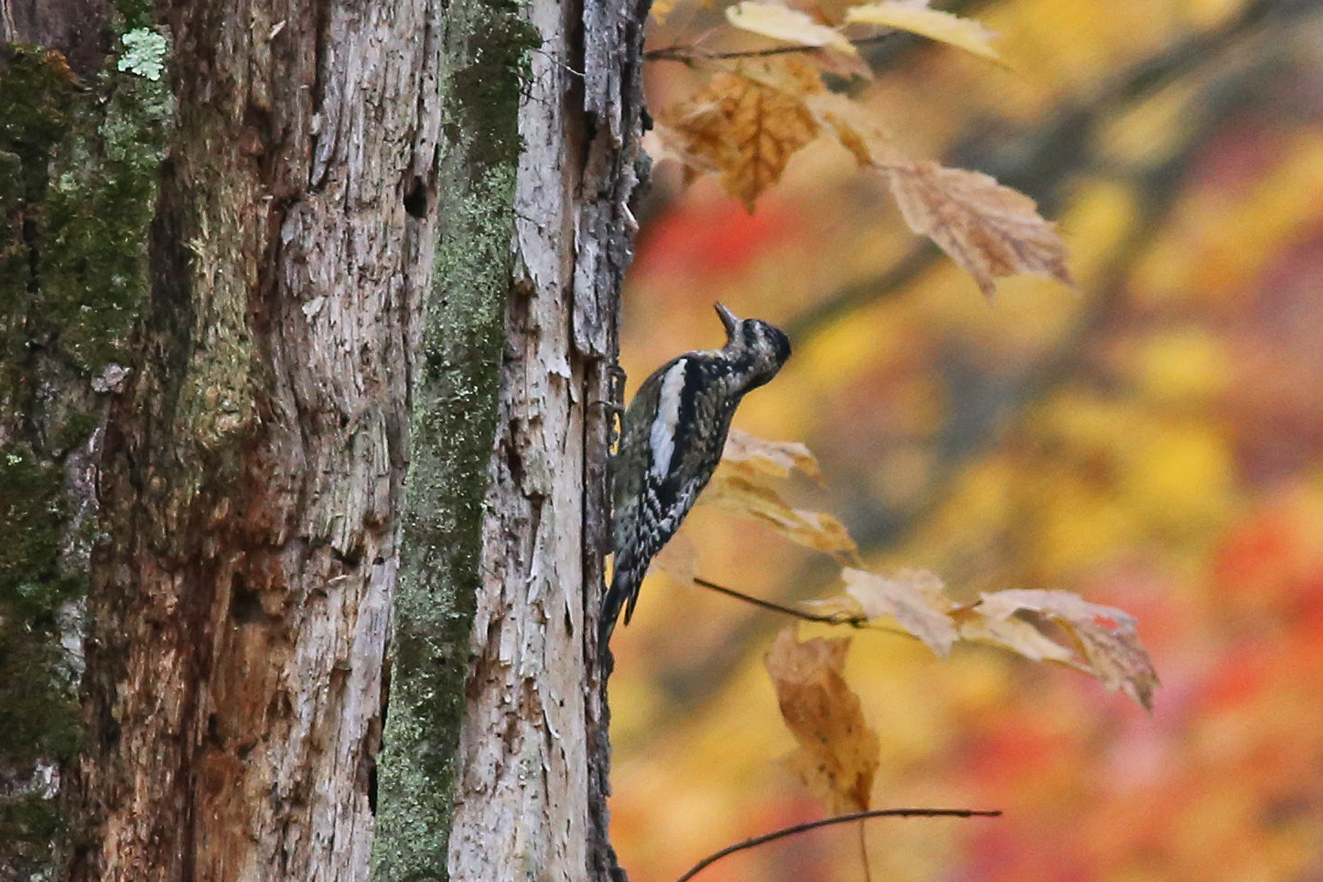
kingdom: Animalia
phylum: Chordata
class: Aves
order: Piciformes
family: Picidae
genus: Sphyrapicus
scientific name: Sphyrapicus varius
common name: Yellow-bellied sapsucker
